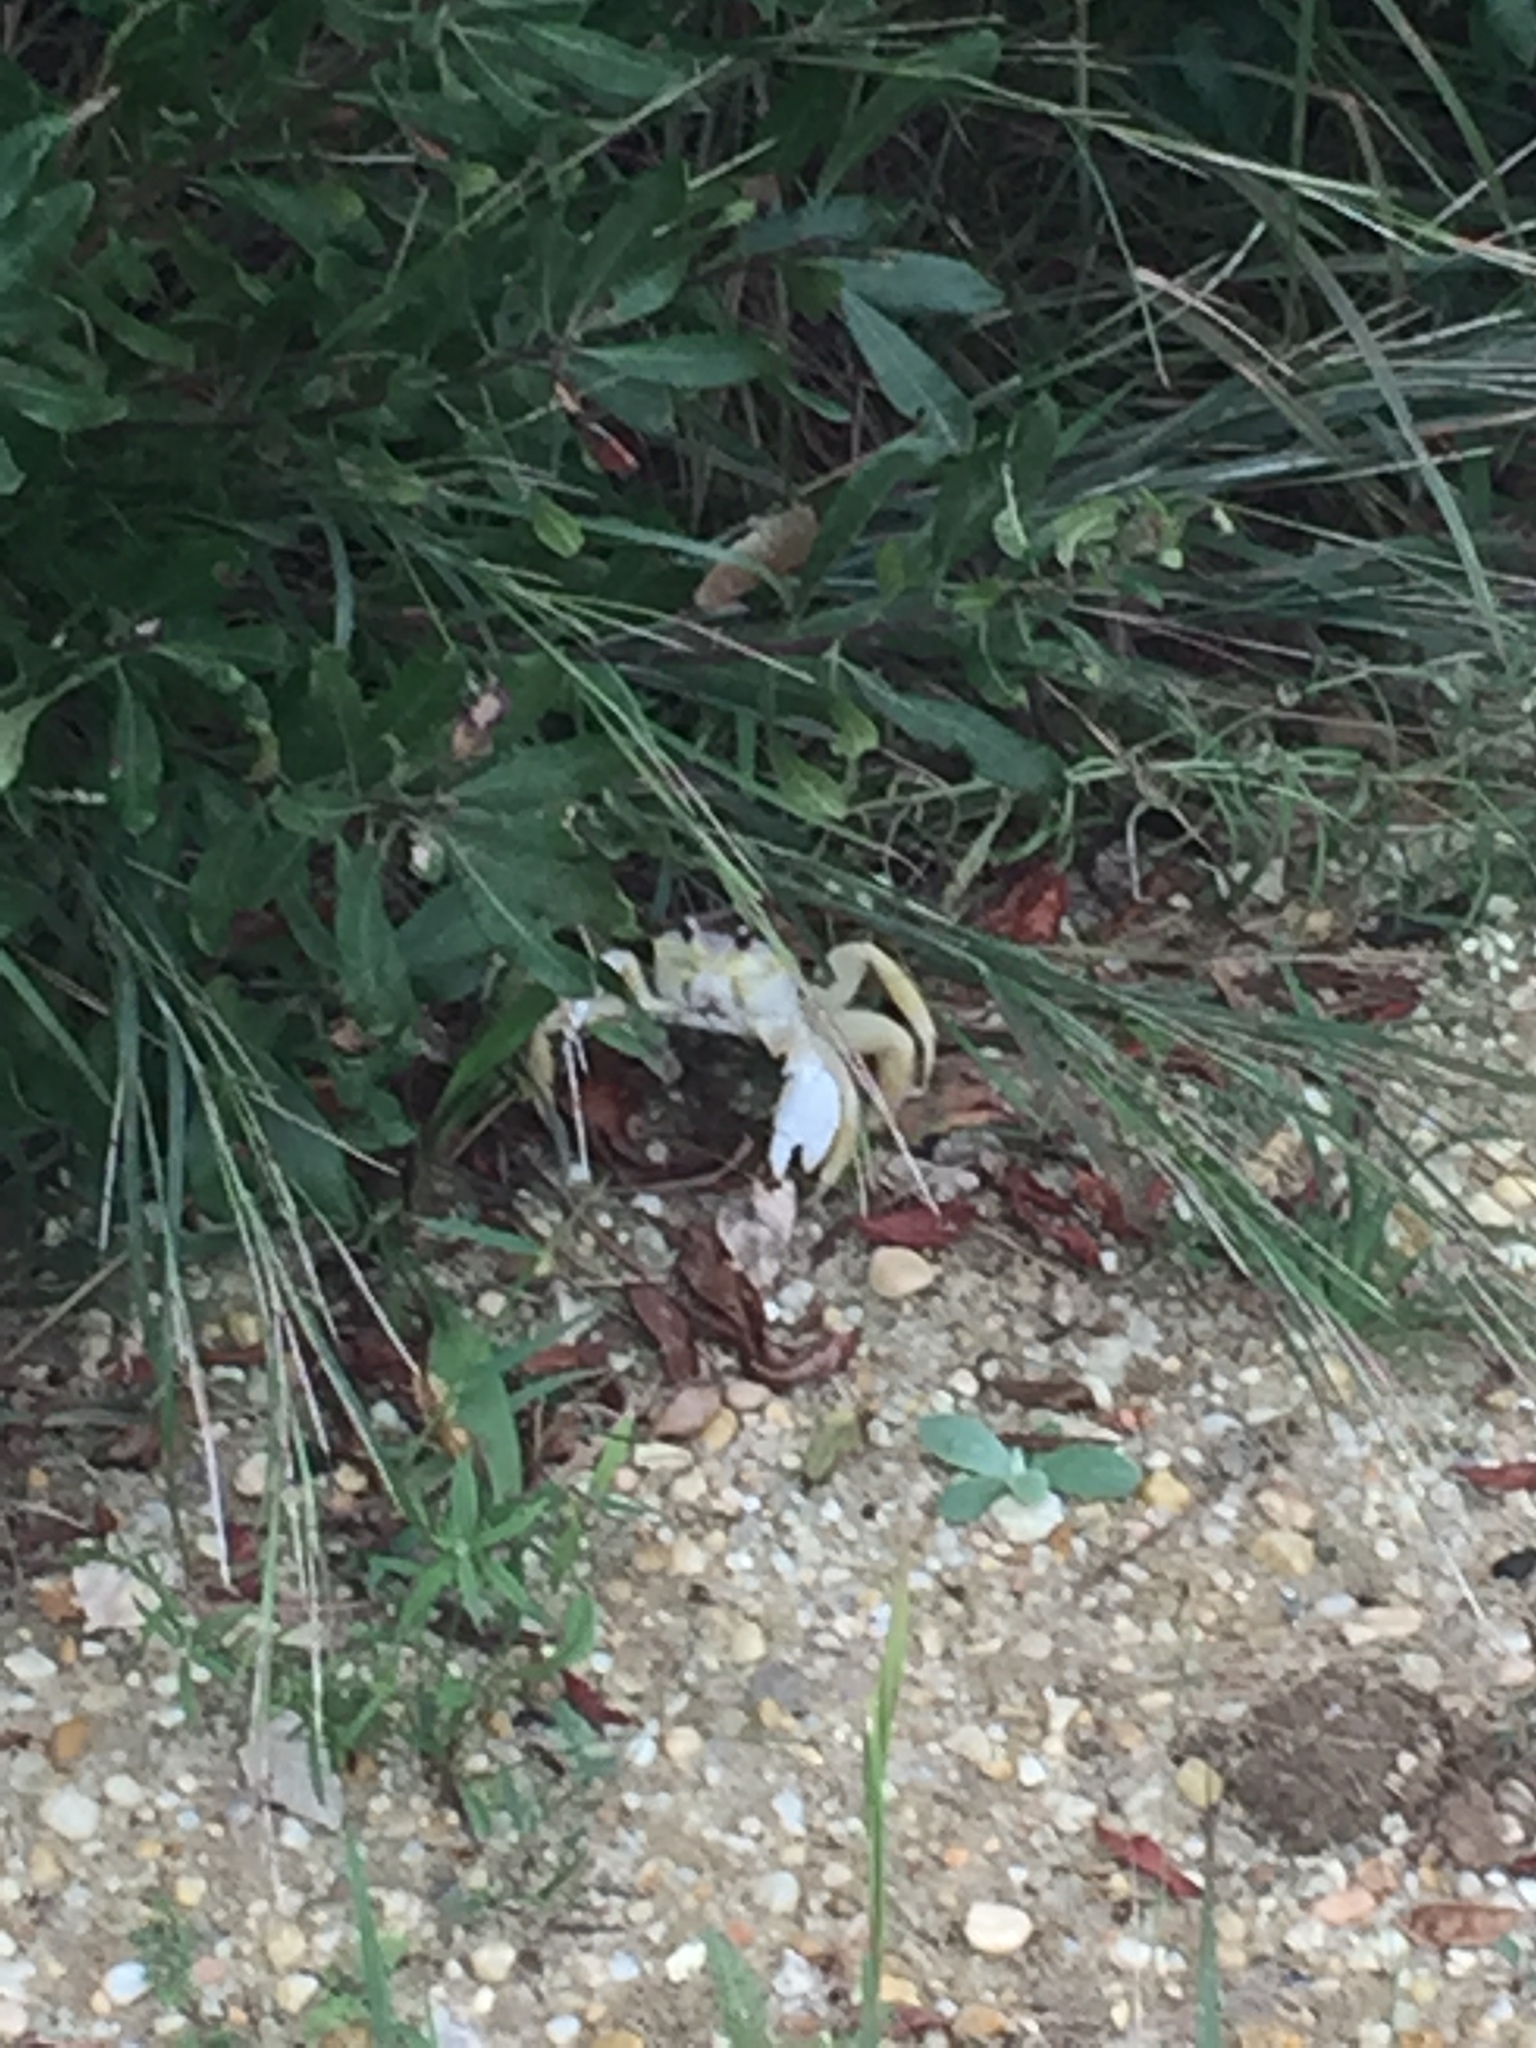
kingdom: Animalia
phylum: Arthropoda
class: Malacostraca
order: Decapoda
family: Ocypodidae
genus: Ocypode
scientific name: Ocypode quadrata
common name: Ghost crab
